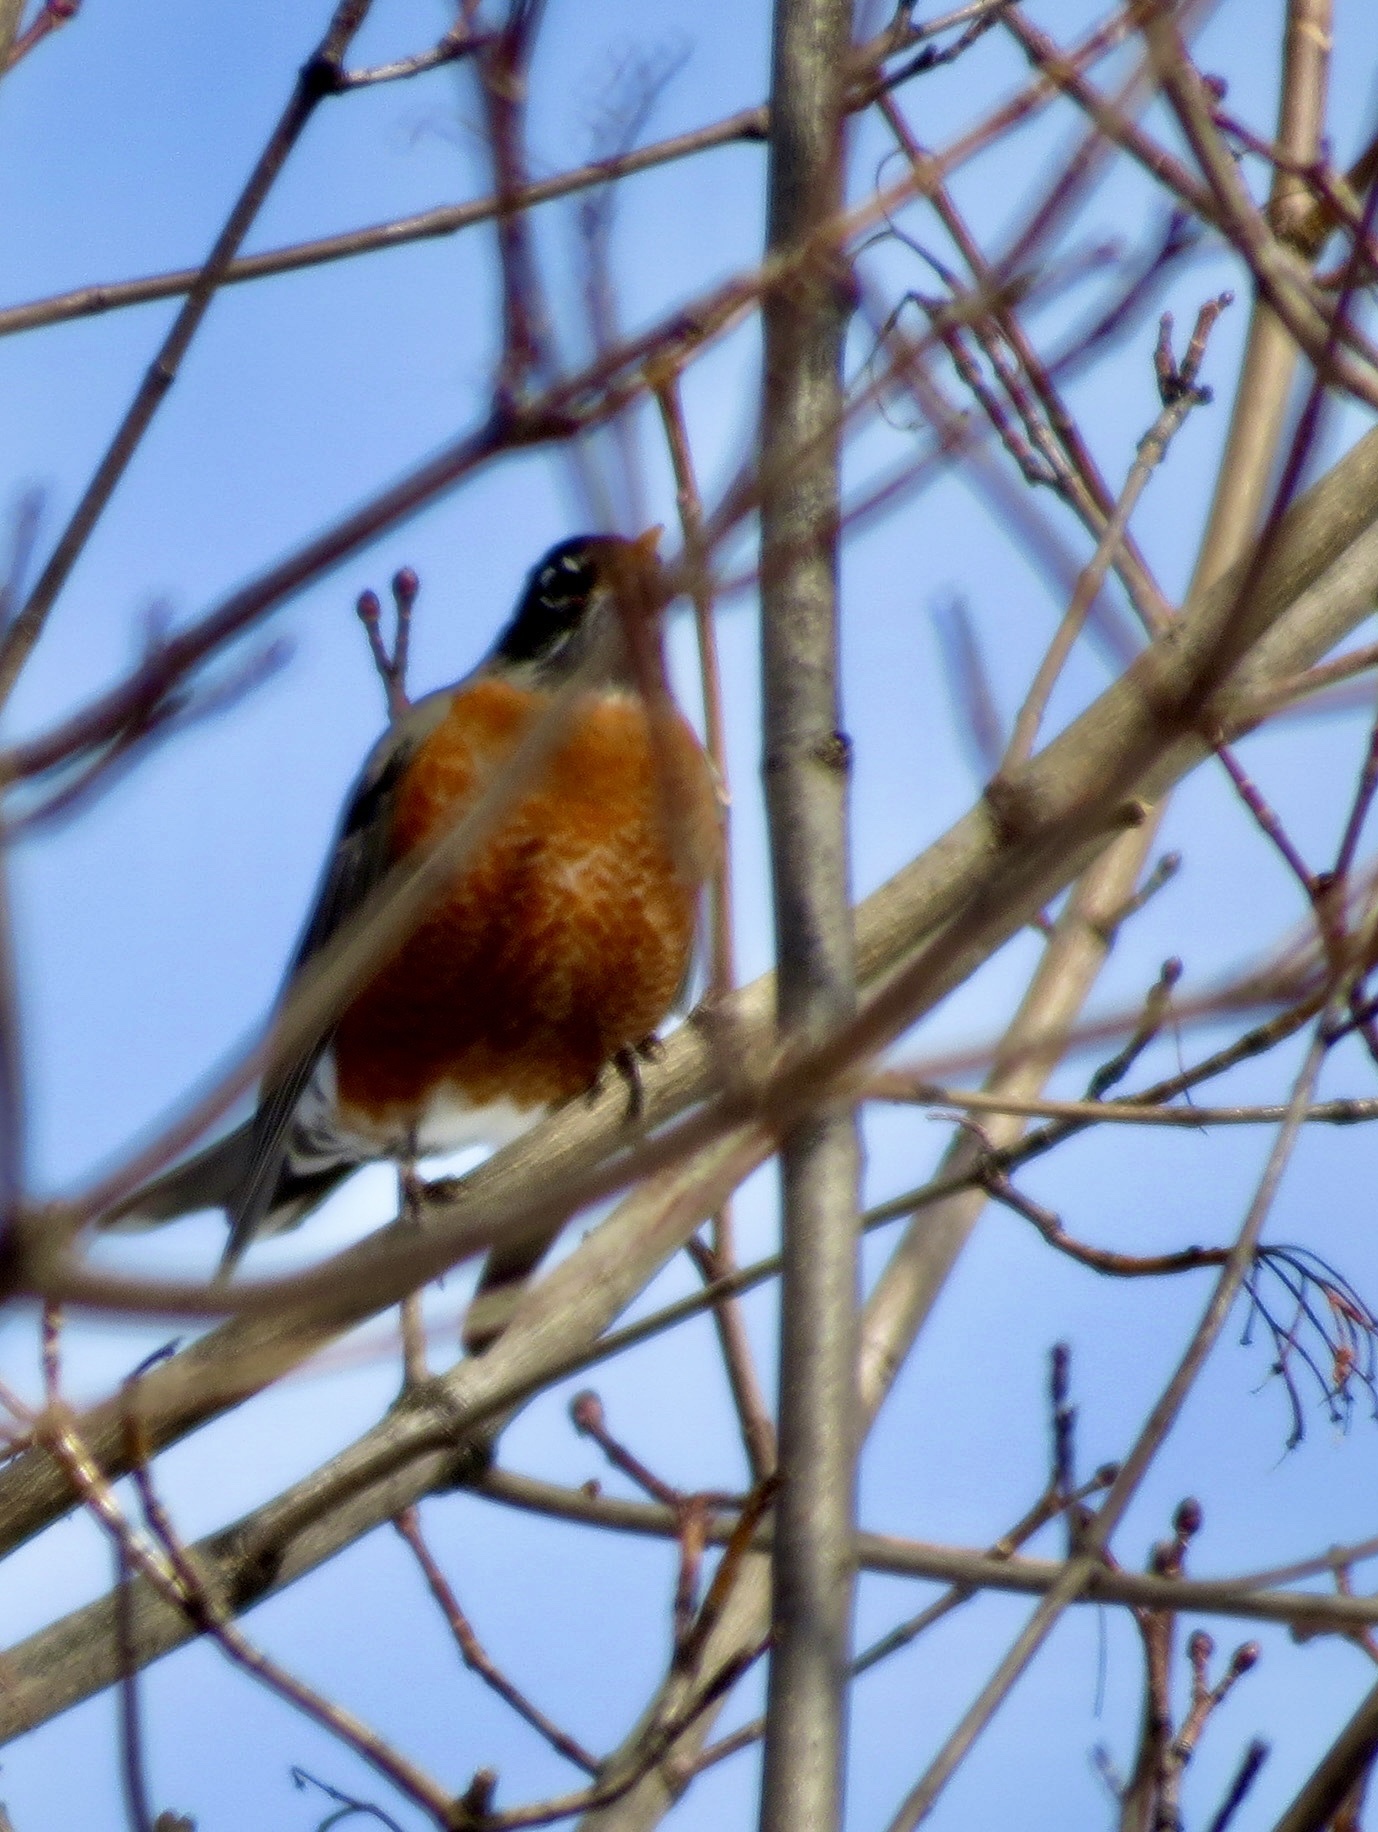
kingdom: Animalia
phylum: Chordata
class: Aves
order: Passeriformes
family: Turdidae
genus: Turdus
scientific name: Turdus migratorius
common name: American robin
